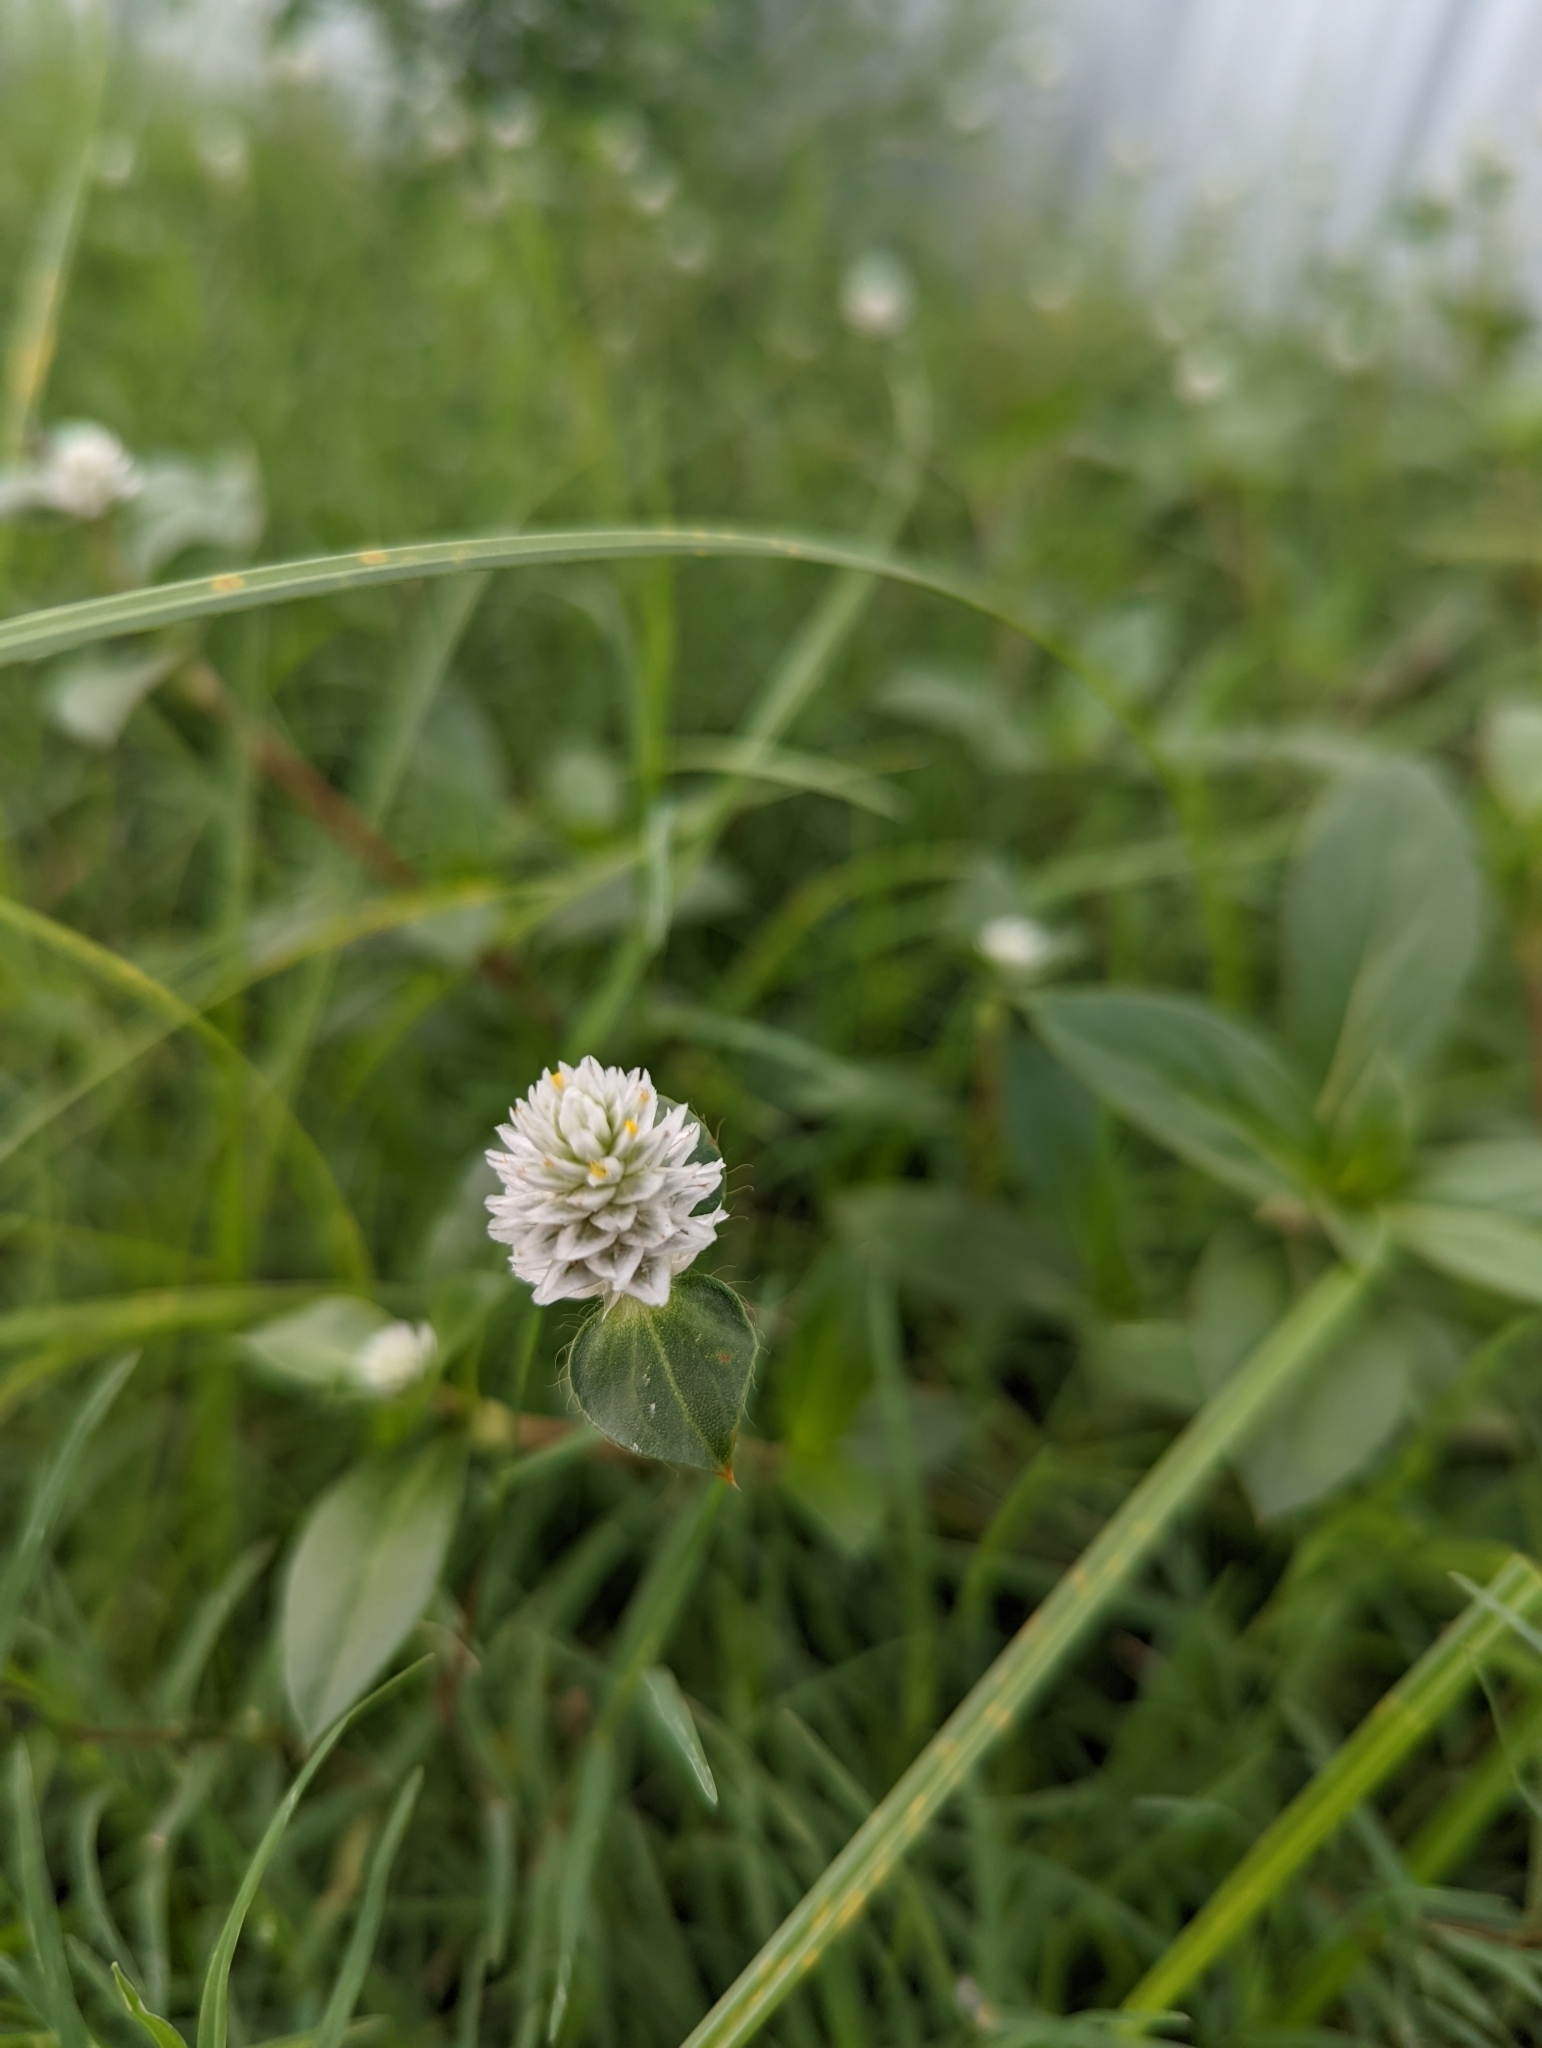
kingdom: Plantae
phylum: Tracheophyta
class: Magnoliopsida
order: Caryophyllales
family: Amaranthaceae
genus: Gomphrena
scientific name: Gomphrena celosioides
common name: Gomphrena-weed
